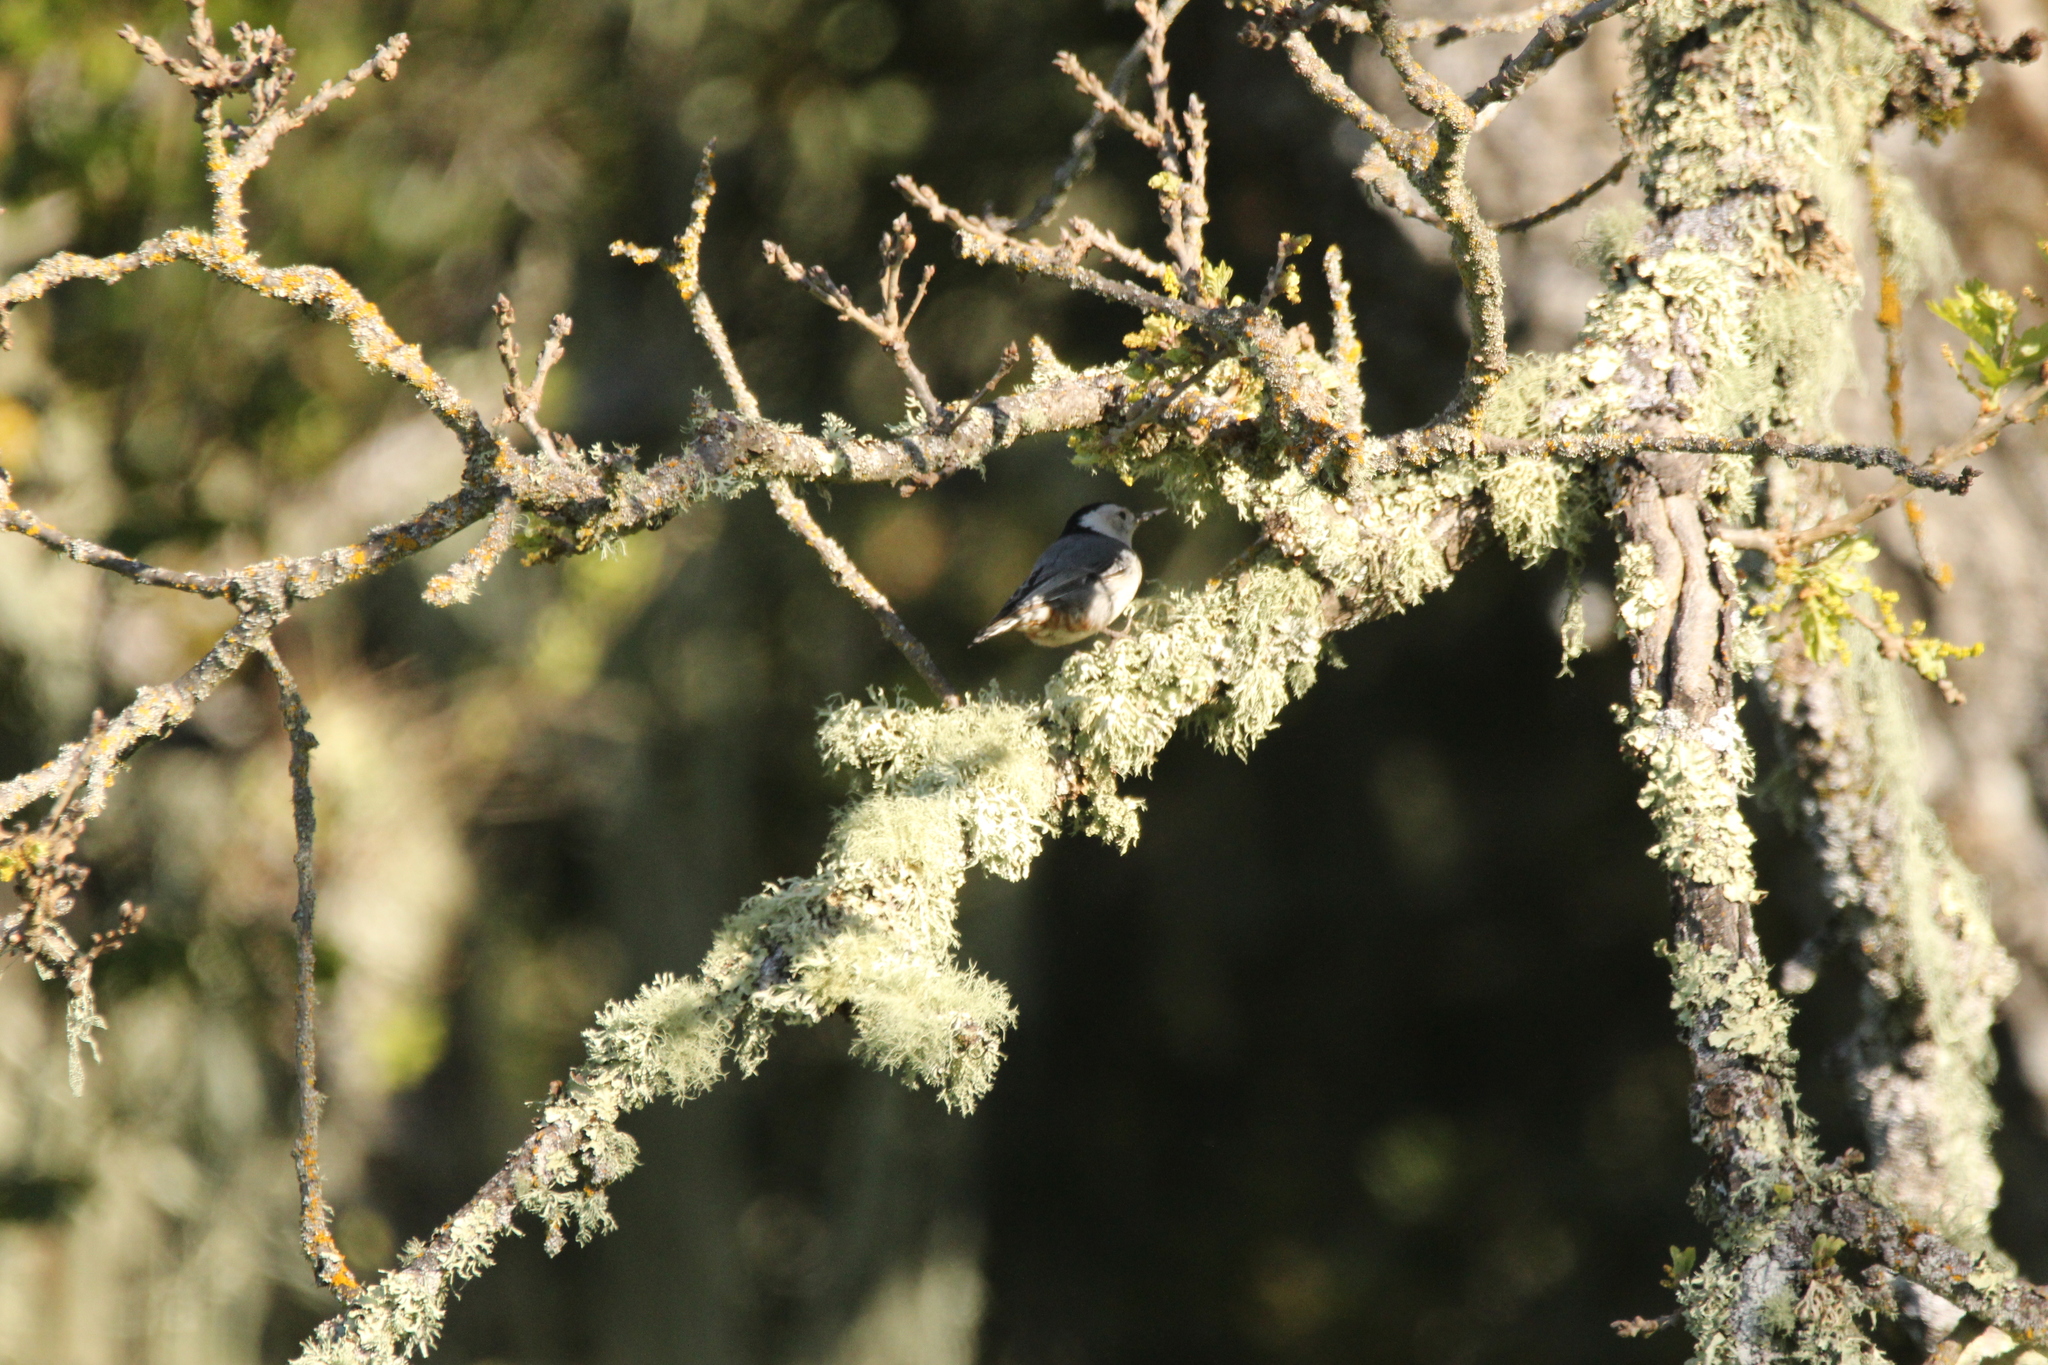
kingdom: Animalia
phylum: Chordata
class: Aves
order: Passeriformes
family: Sittidae
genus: Sitta
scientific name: Sitta carolinensis
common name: White-breasted nuthatch
